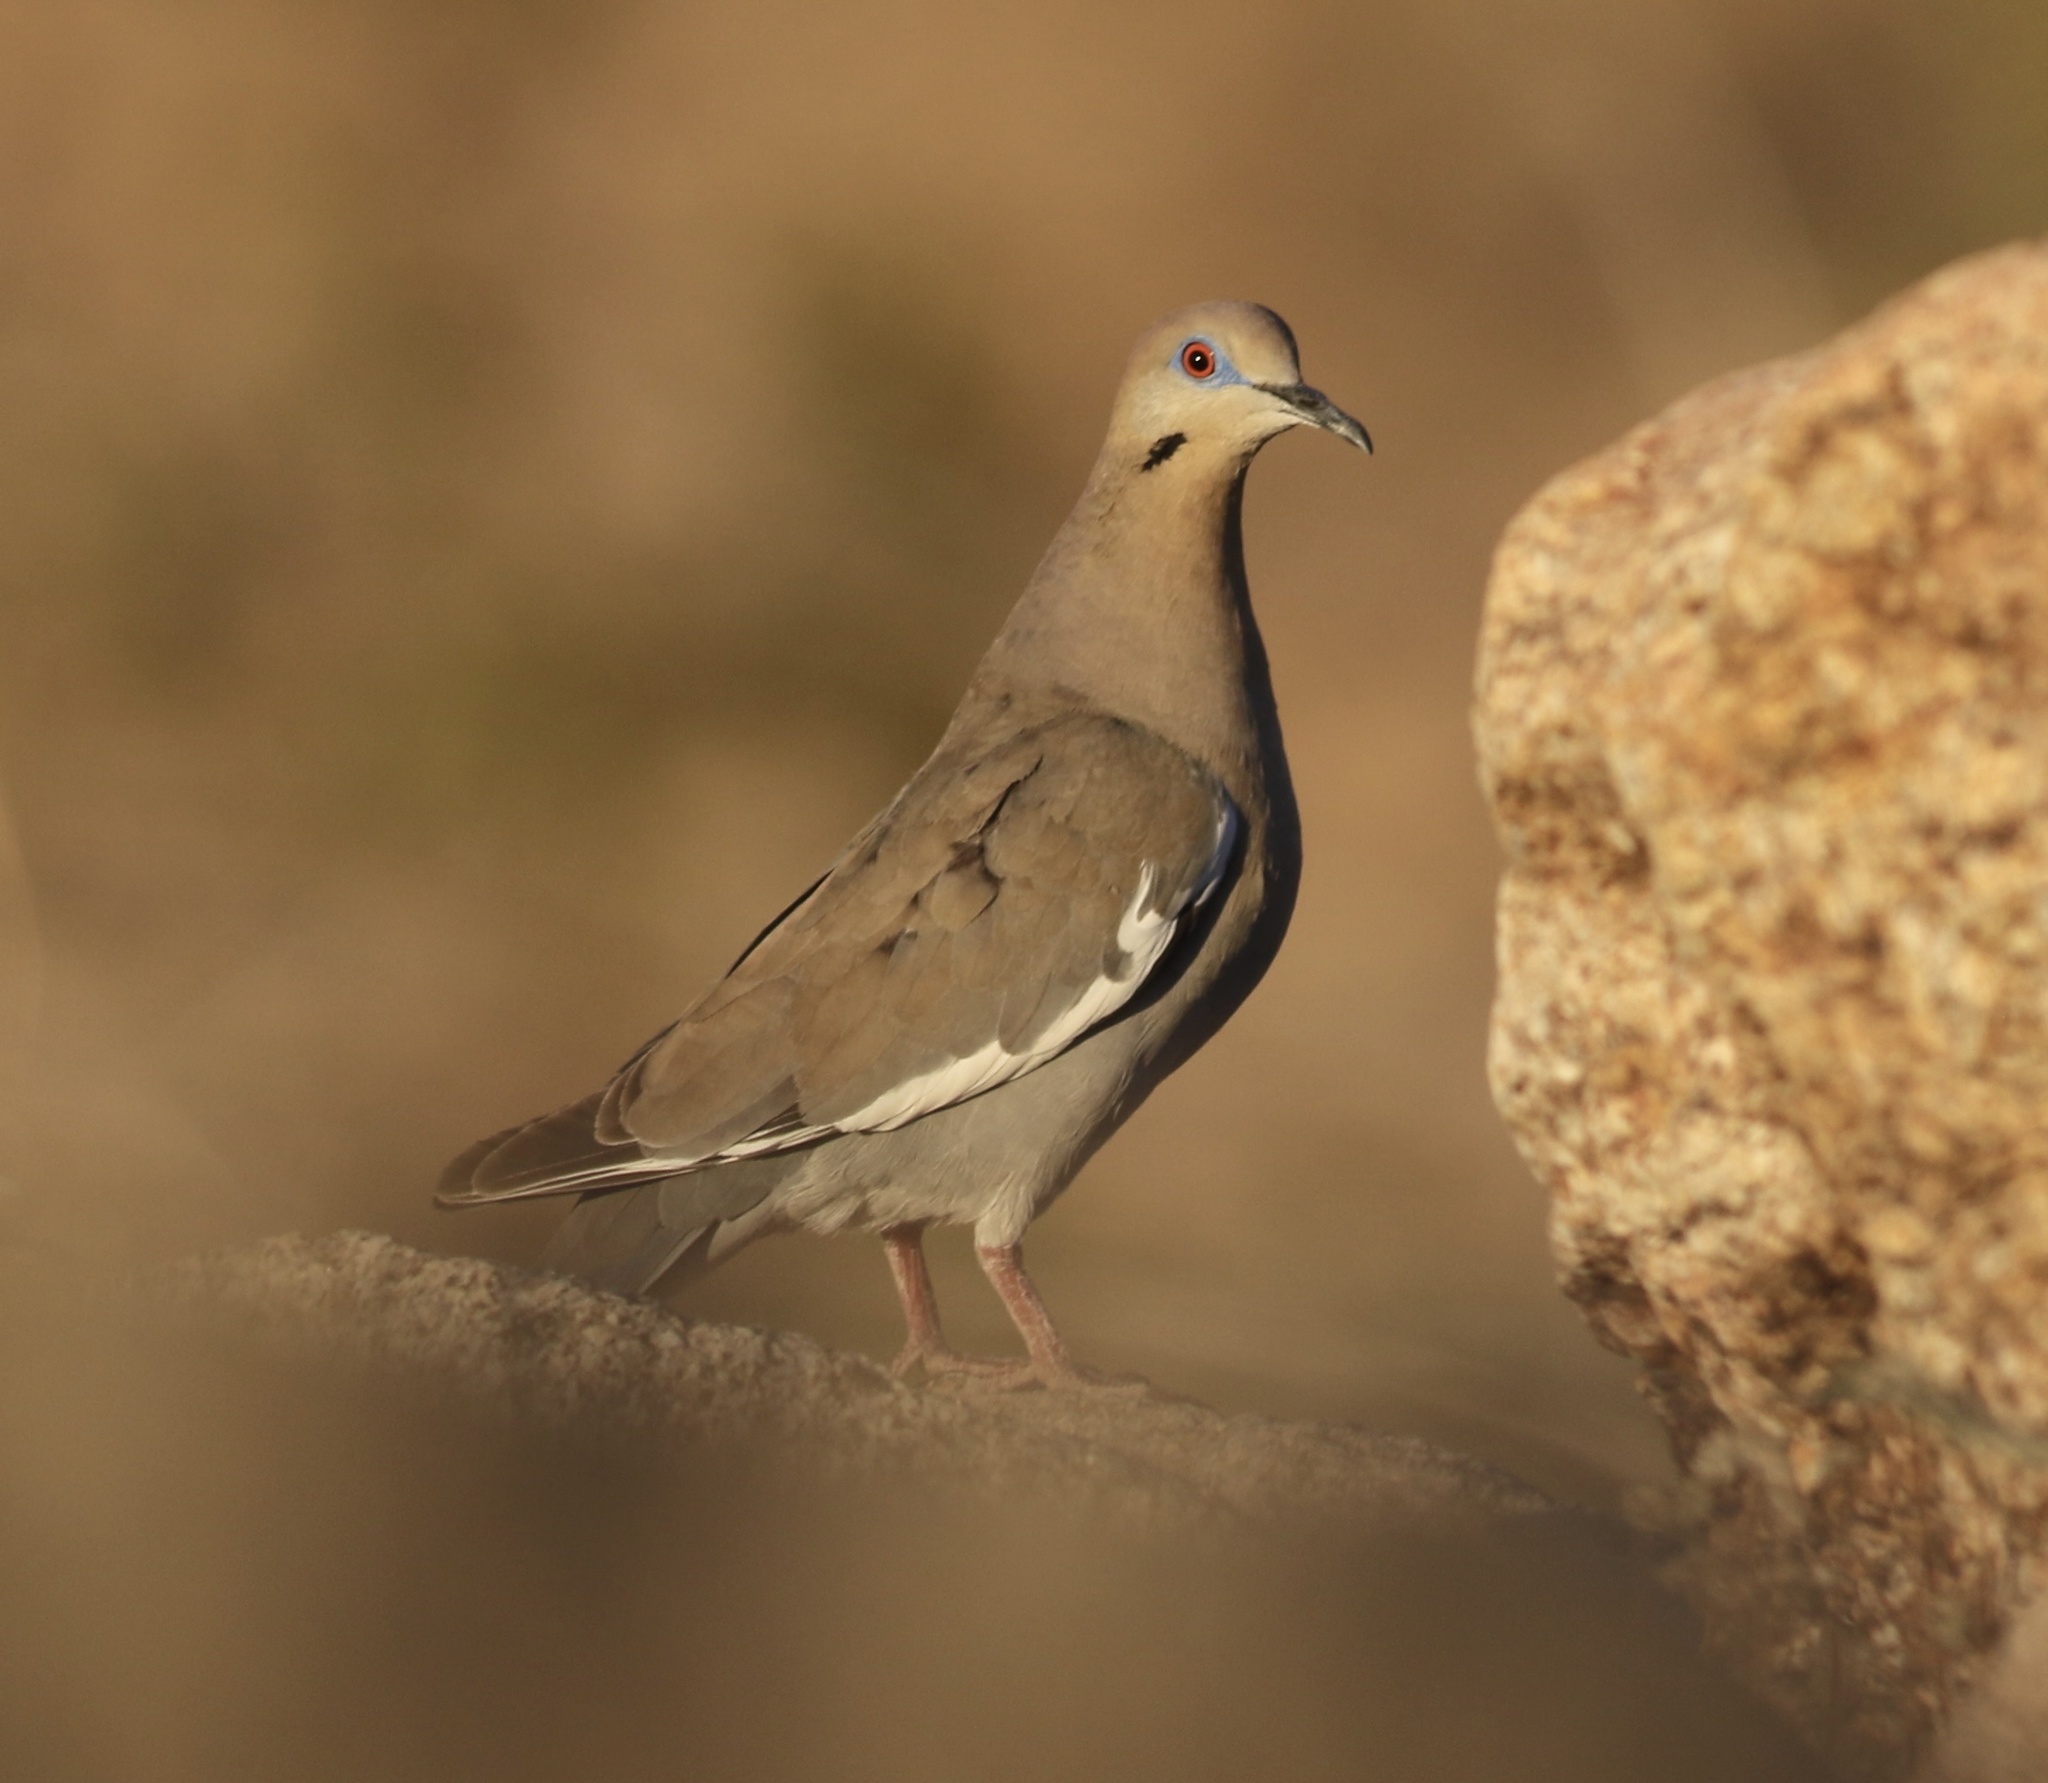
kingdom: Animalia
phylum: Chordata
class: Aves
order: Columbiformes
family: Columbidae
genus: Zenaida
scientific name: Zenaida asiatica
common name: White-winged dove
